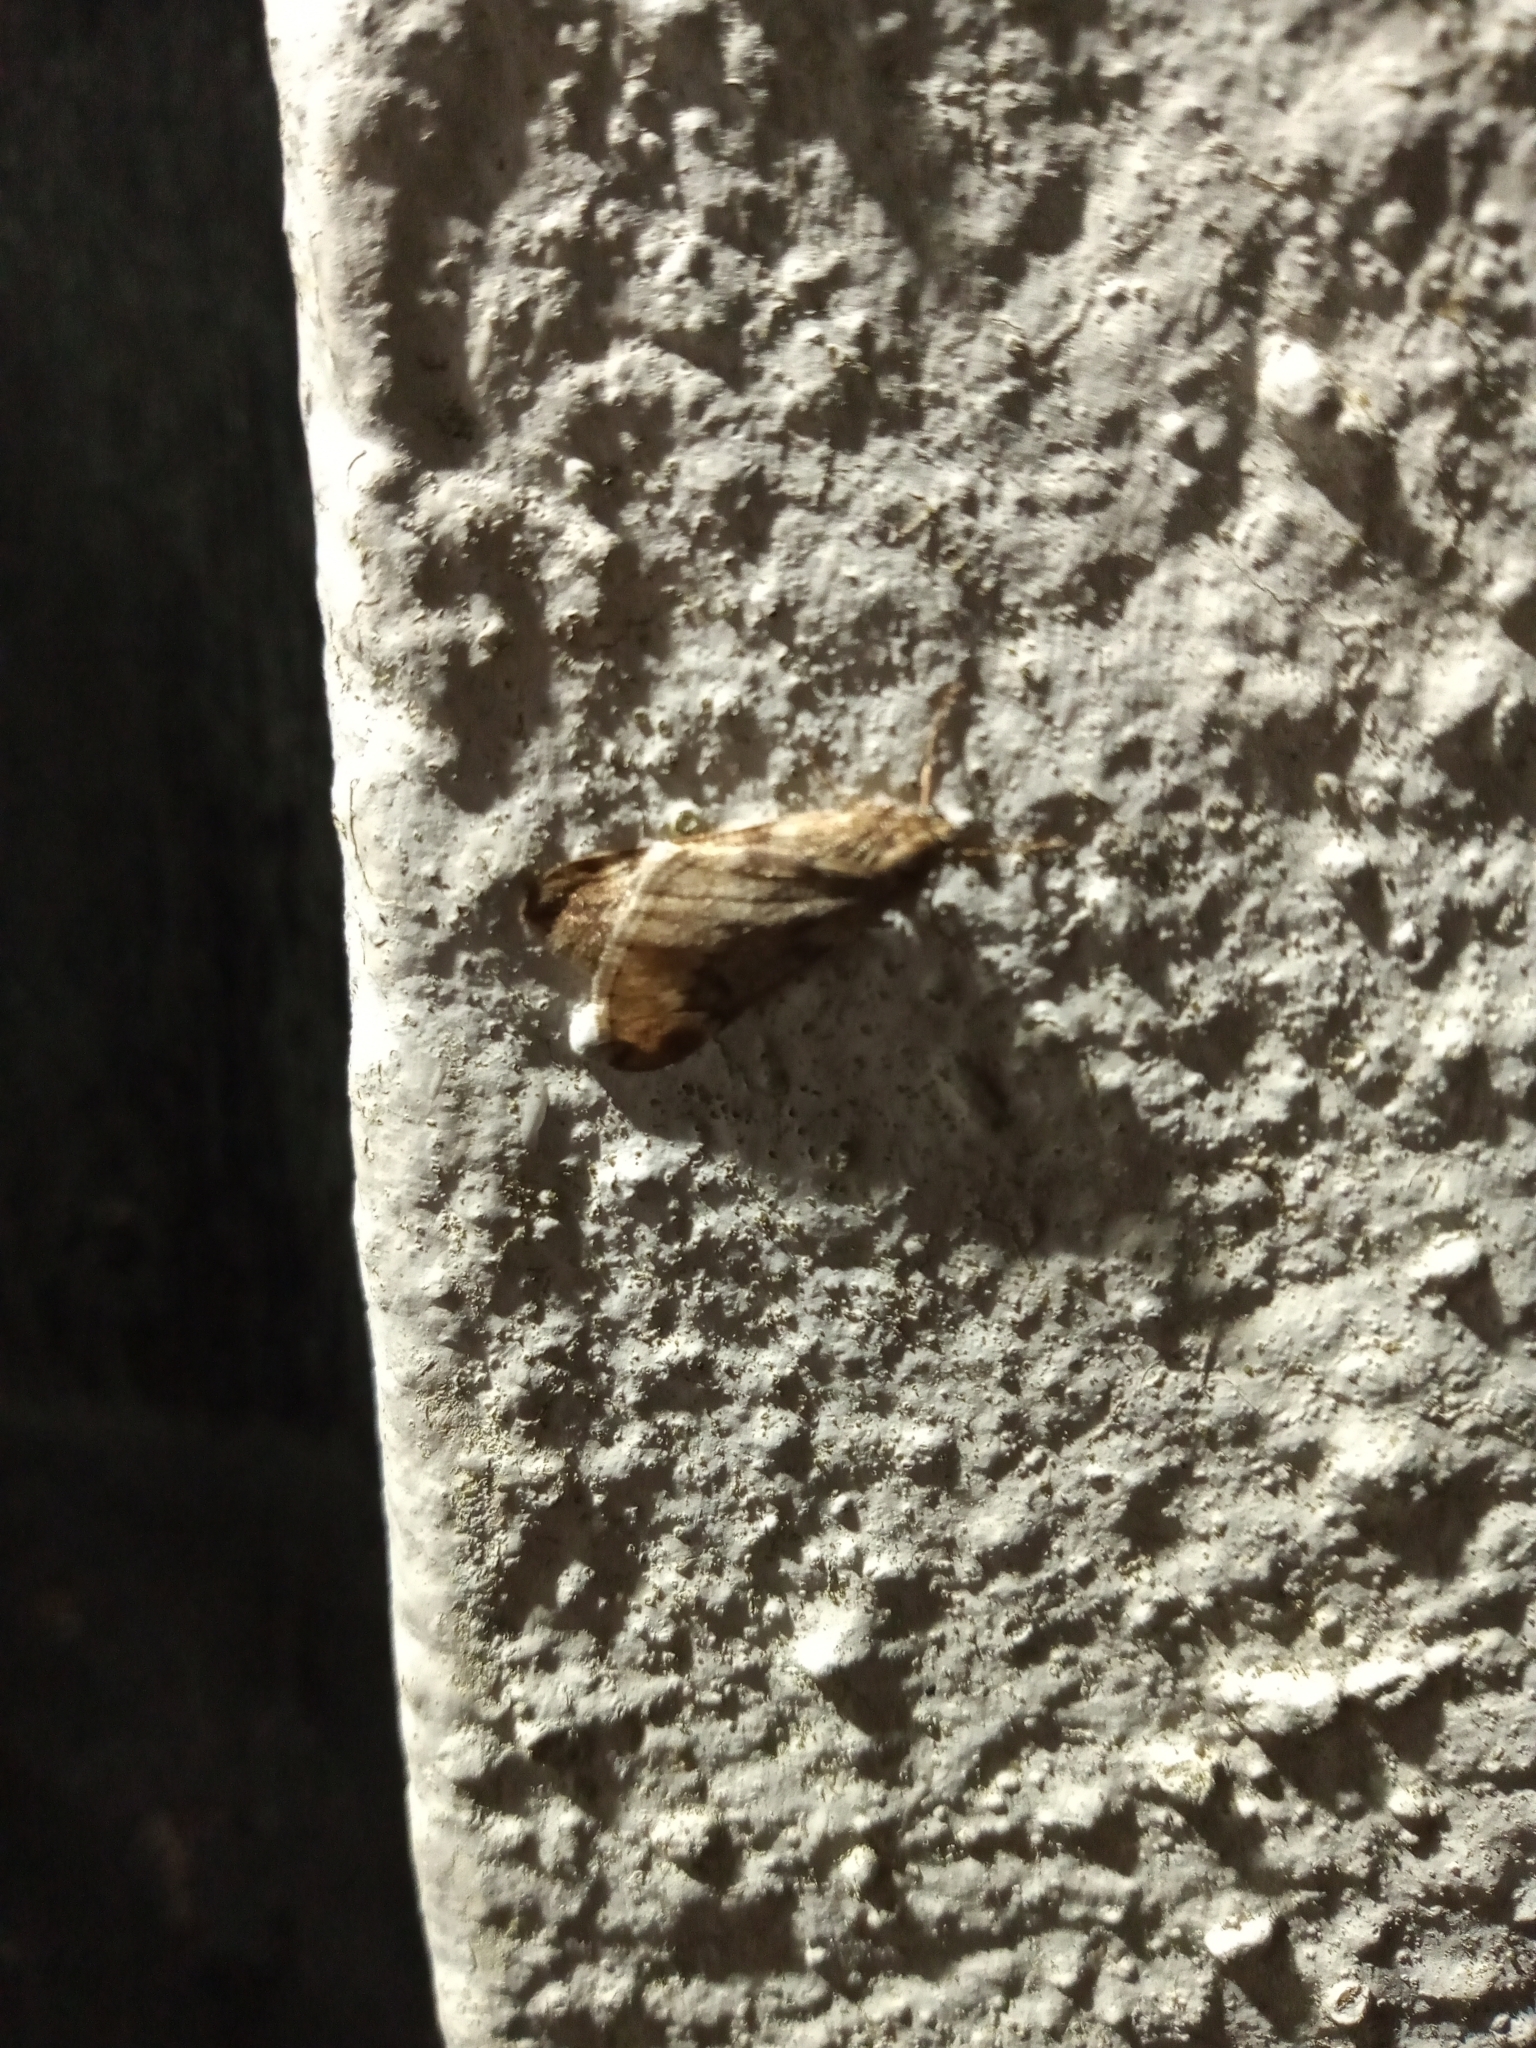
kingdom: Animalia
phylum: Arthropoda
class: Insecta
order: Lepidoptera
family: Geometridae
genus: Alsophila
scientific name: Alsophila aescularia
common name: March moth
